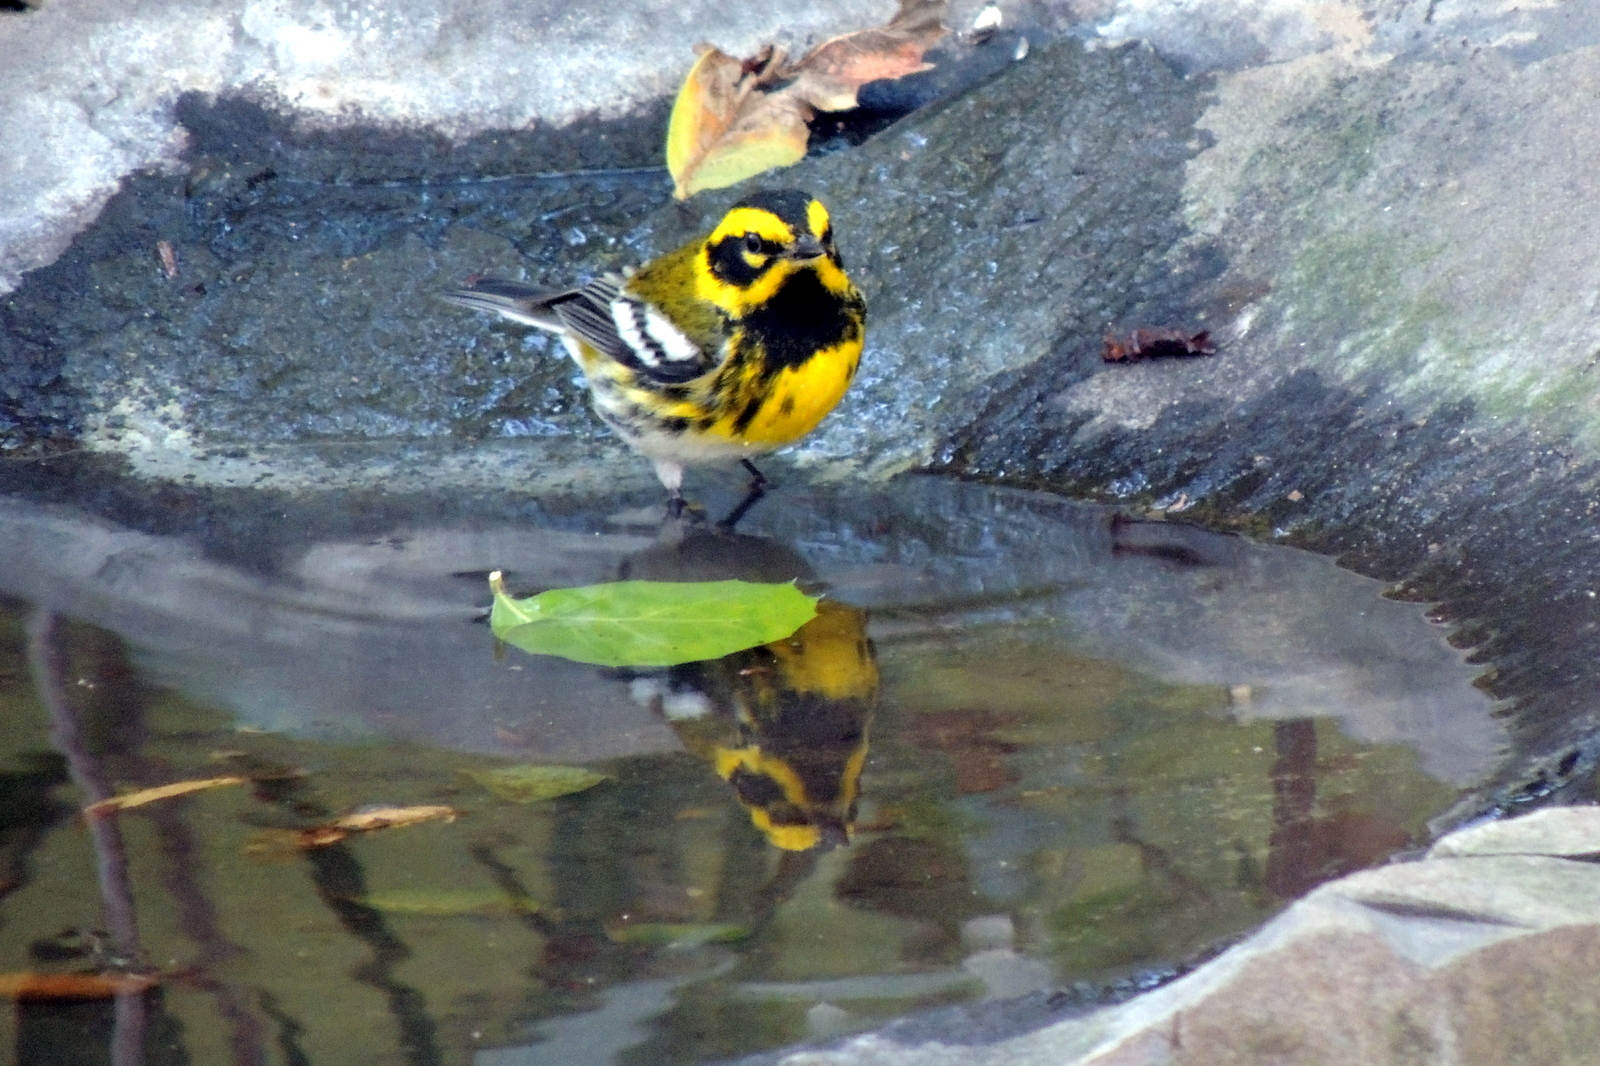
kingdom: Animalia
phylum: Chordata
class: Aves
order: Passeriformes
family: Parulidae
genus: Setophaga
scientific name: Setophaga townsendi
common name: Townsend's warbler
